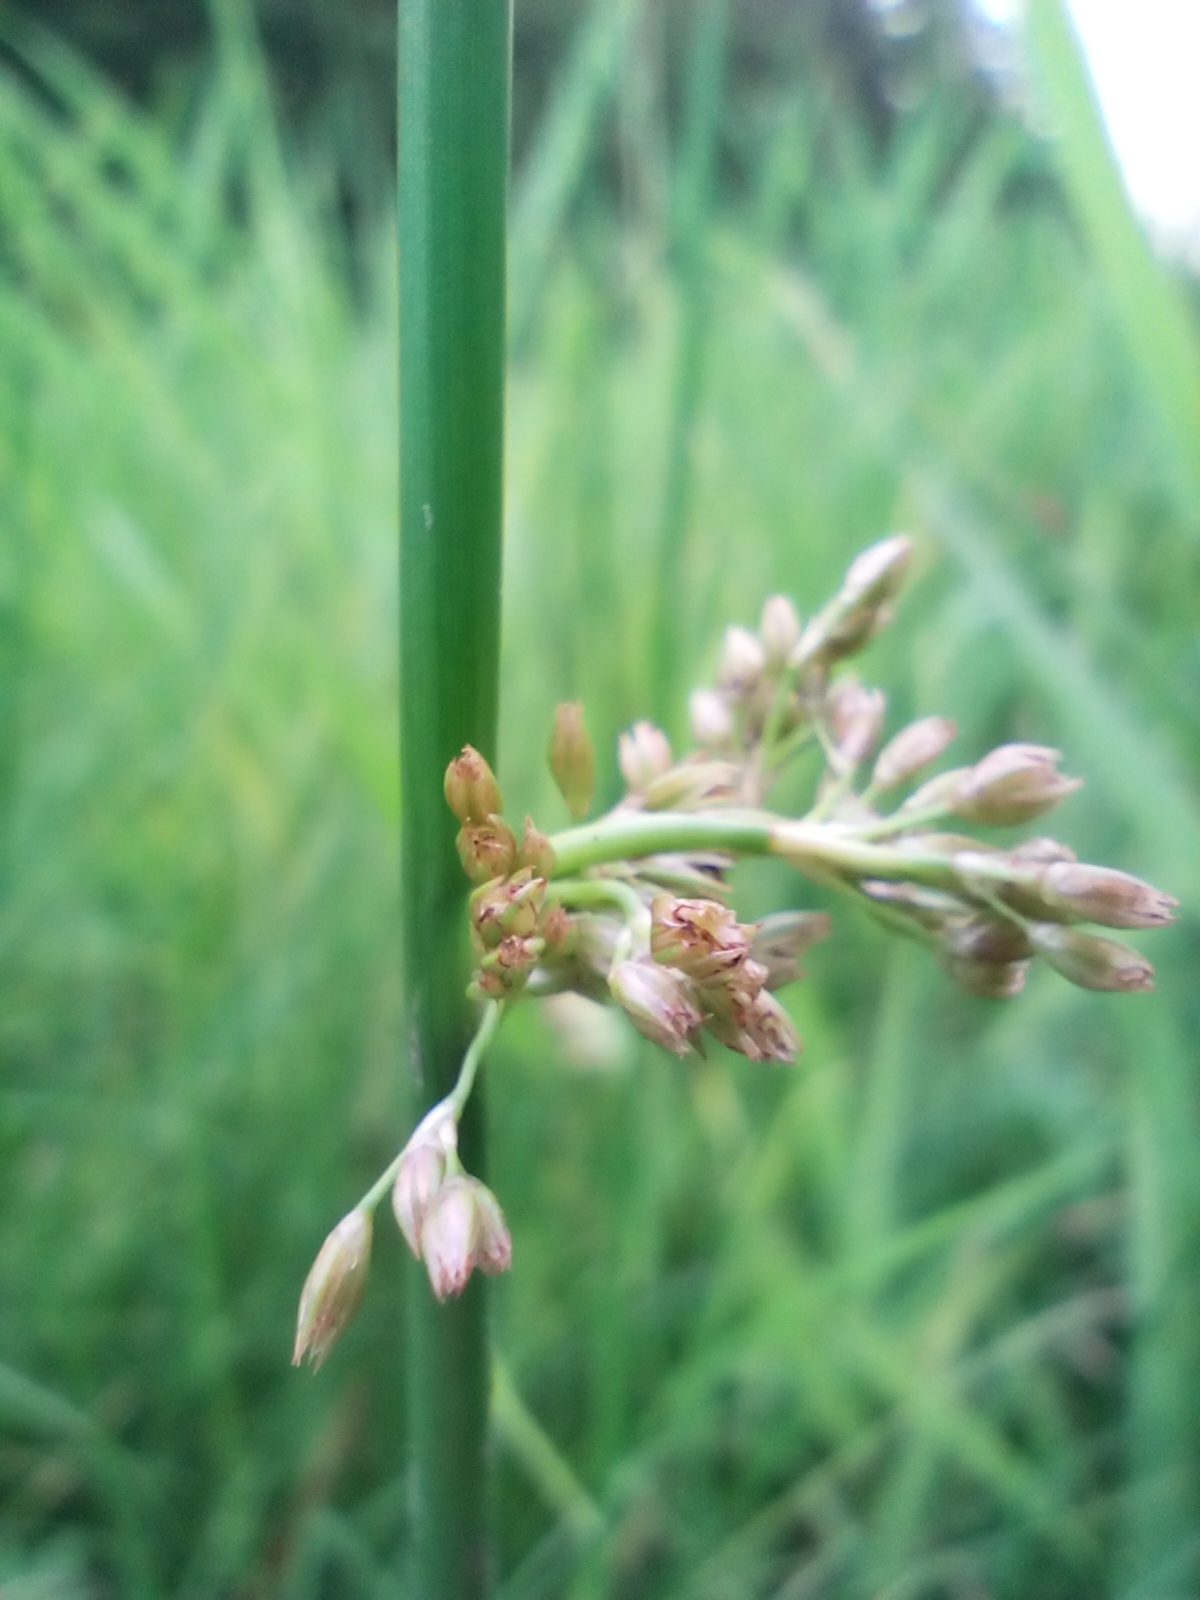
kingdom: Plantae
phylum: Tracheophyta
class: Liliopsida
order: Poales
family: Juncaceae
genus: Juncus
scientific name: Juncus effusus
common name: Soft rush
